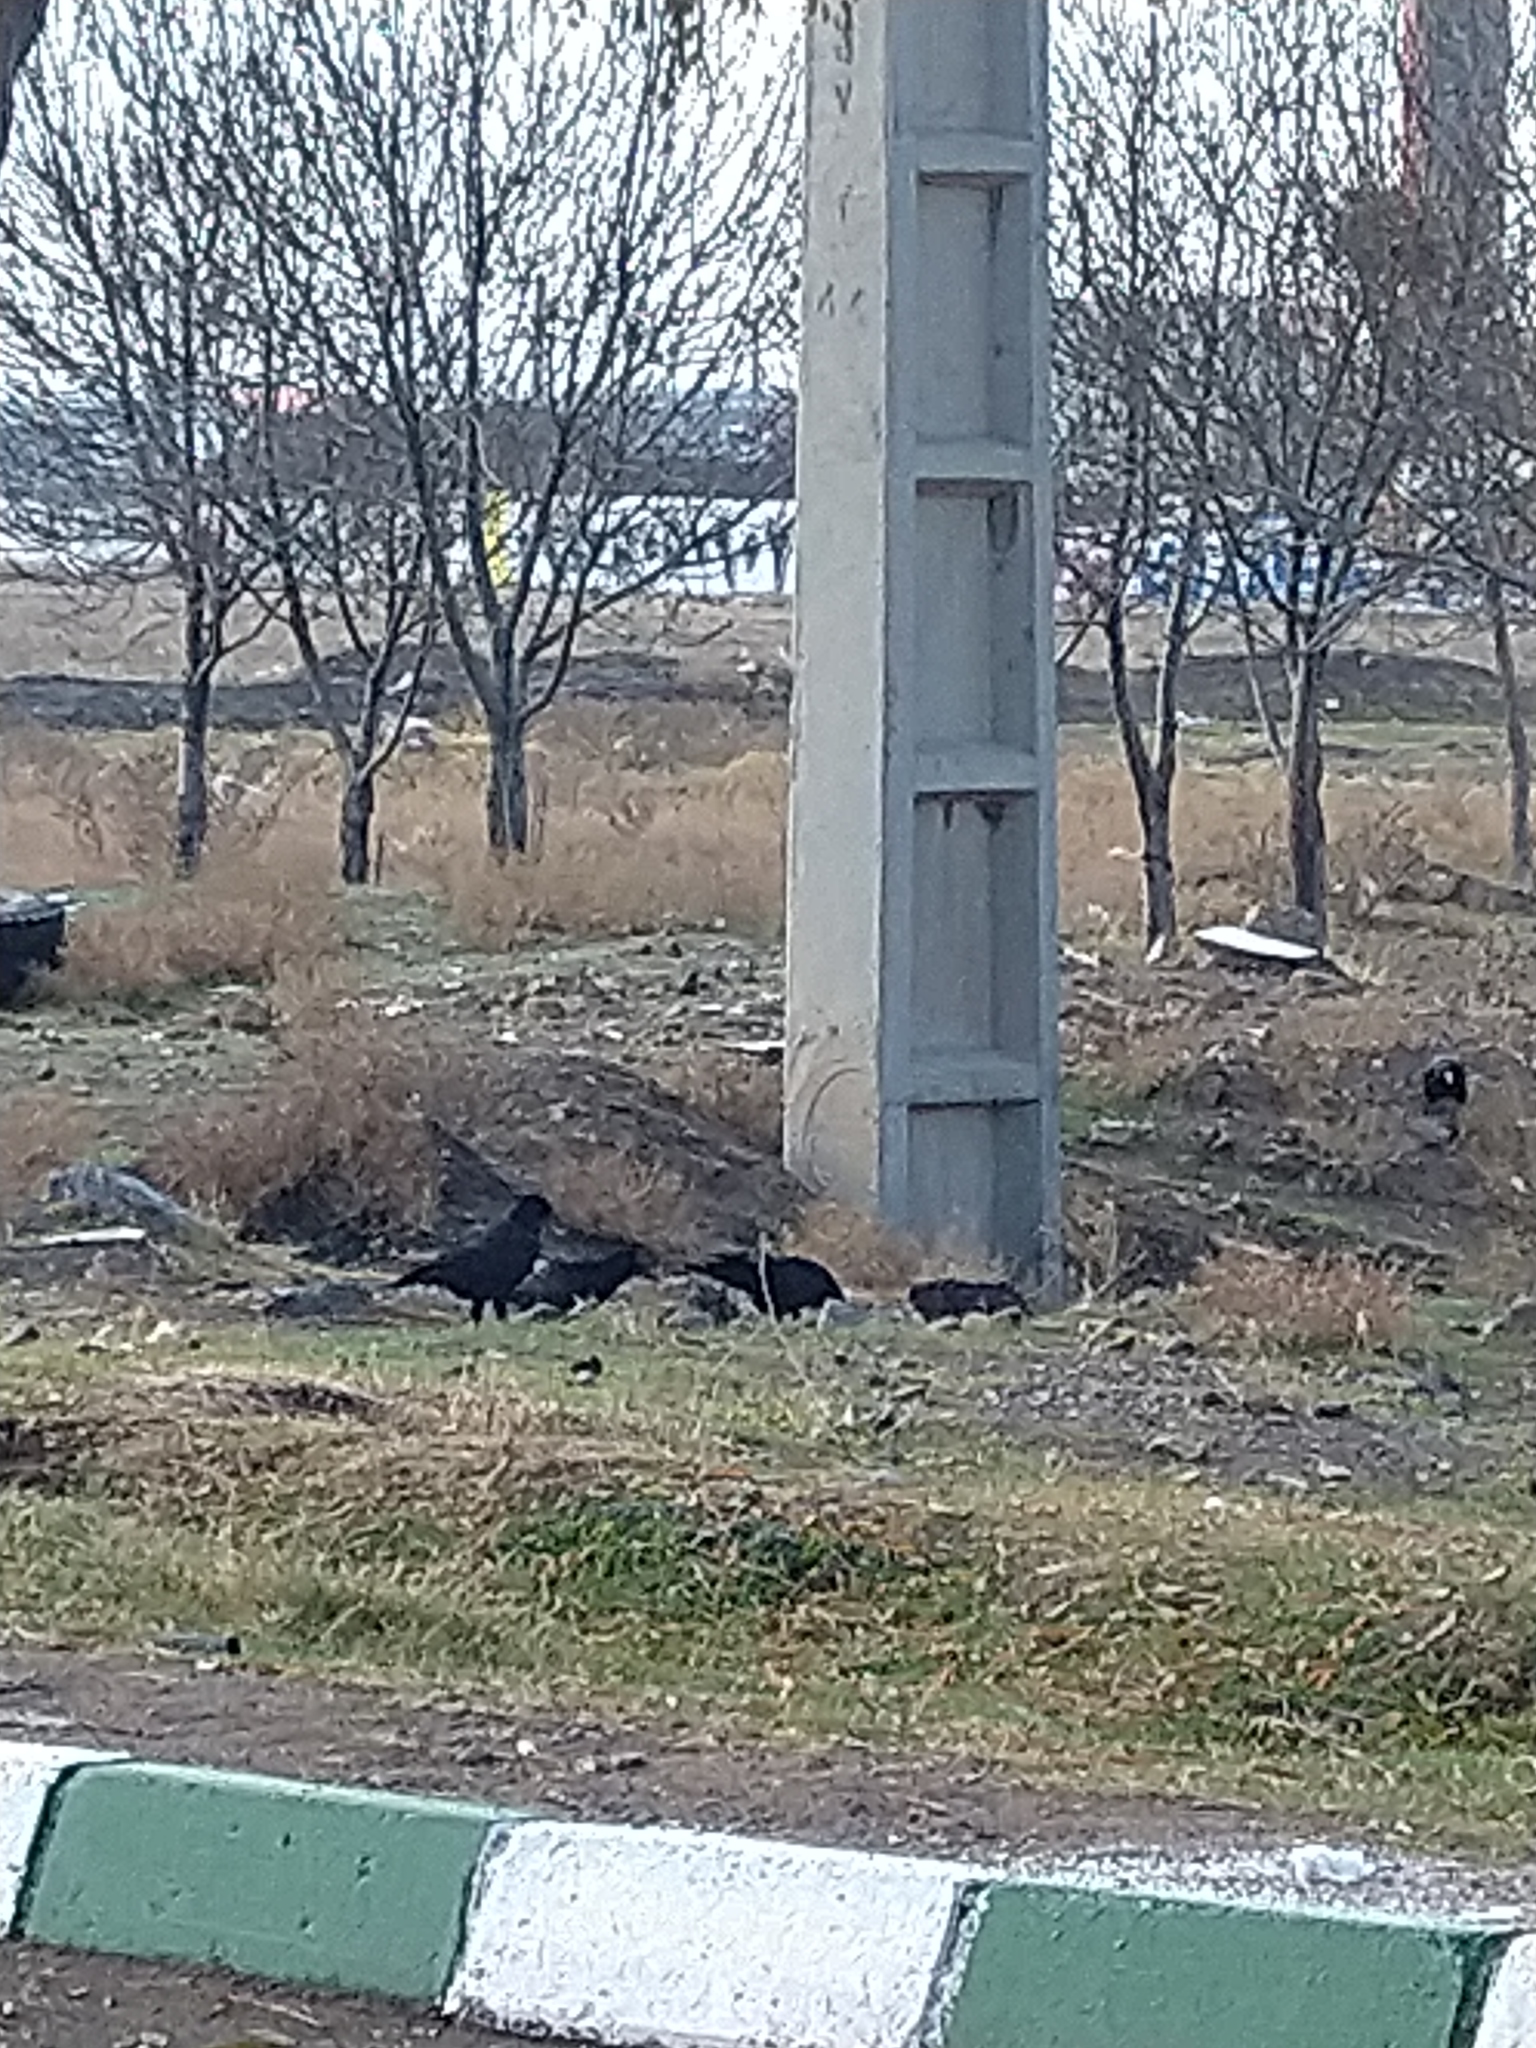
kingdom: Animalia
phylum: Chordata
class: Aves
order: Passeriformes
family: Corvidae
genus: Corvus
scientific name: Corvus frugilegus
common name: Rook
